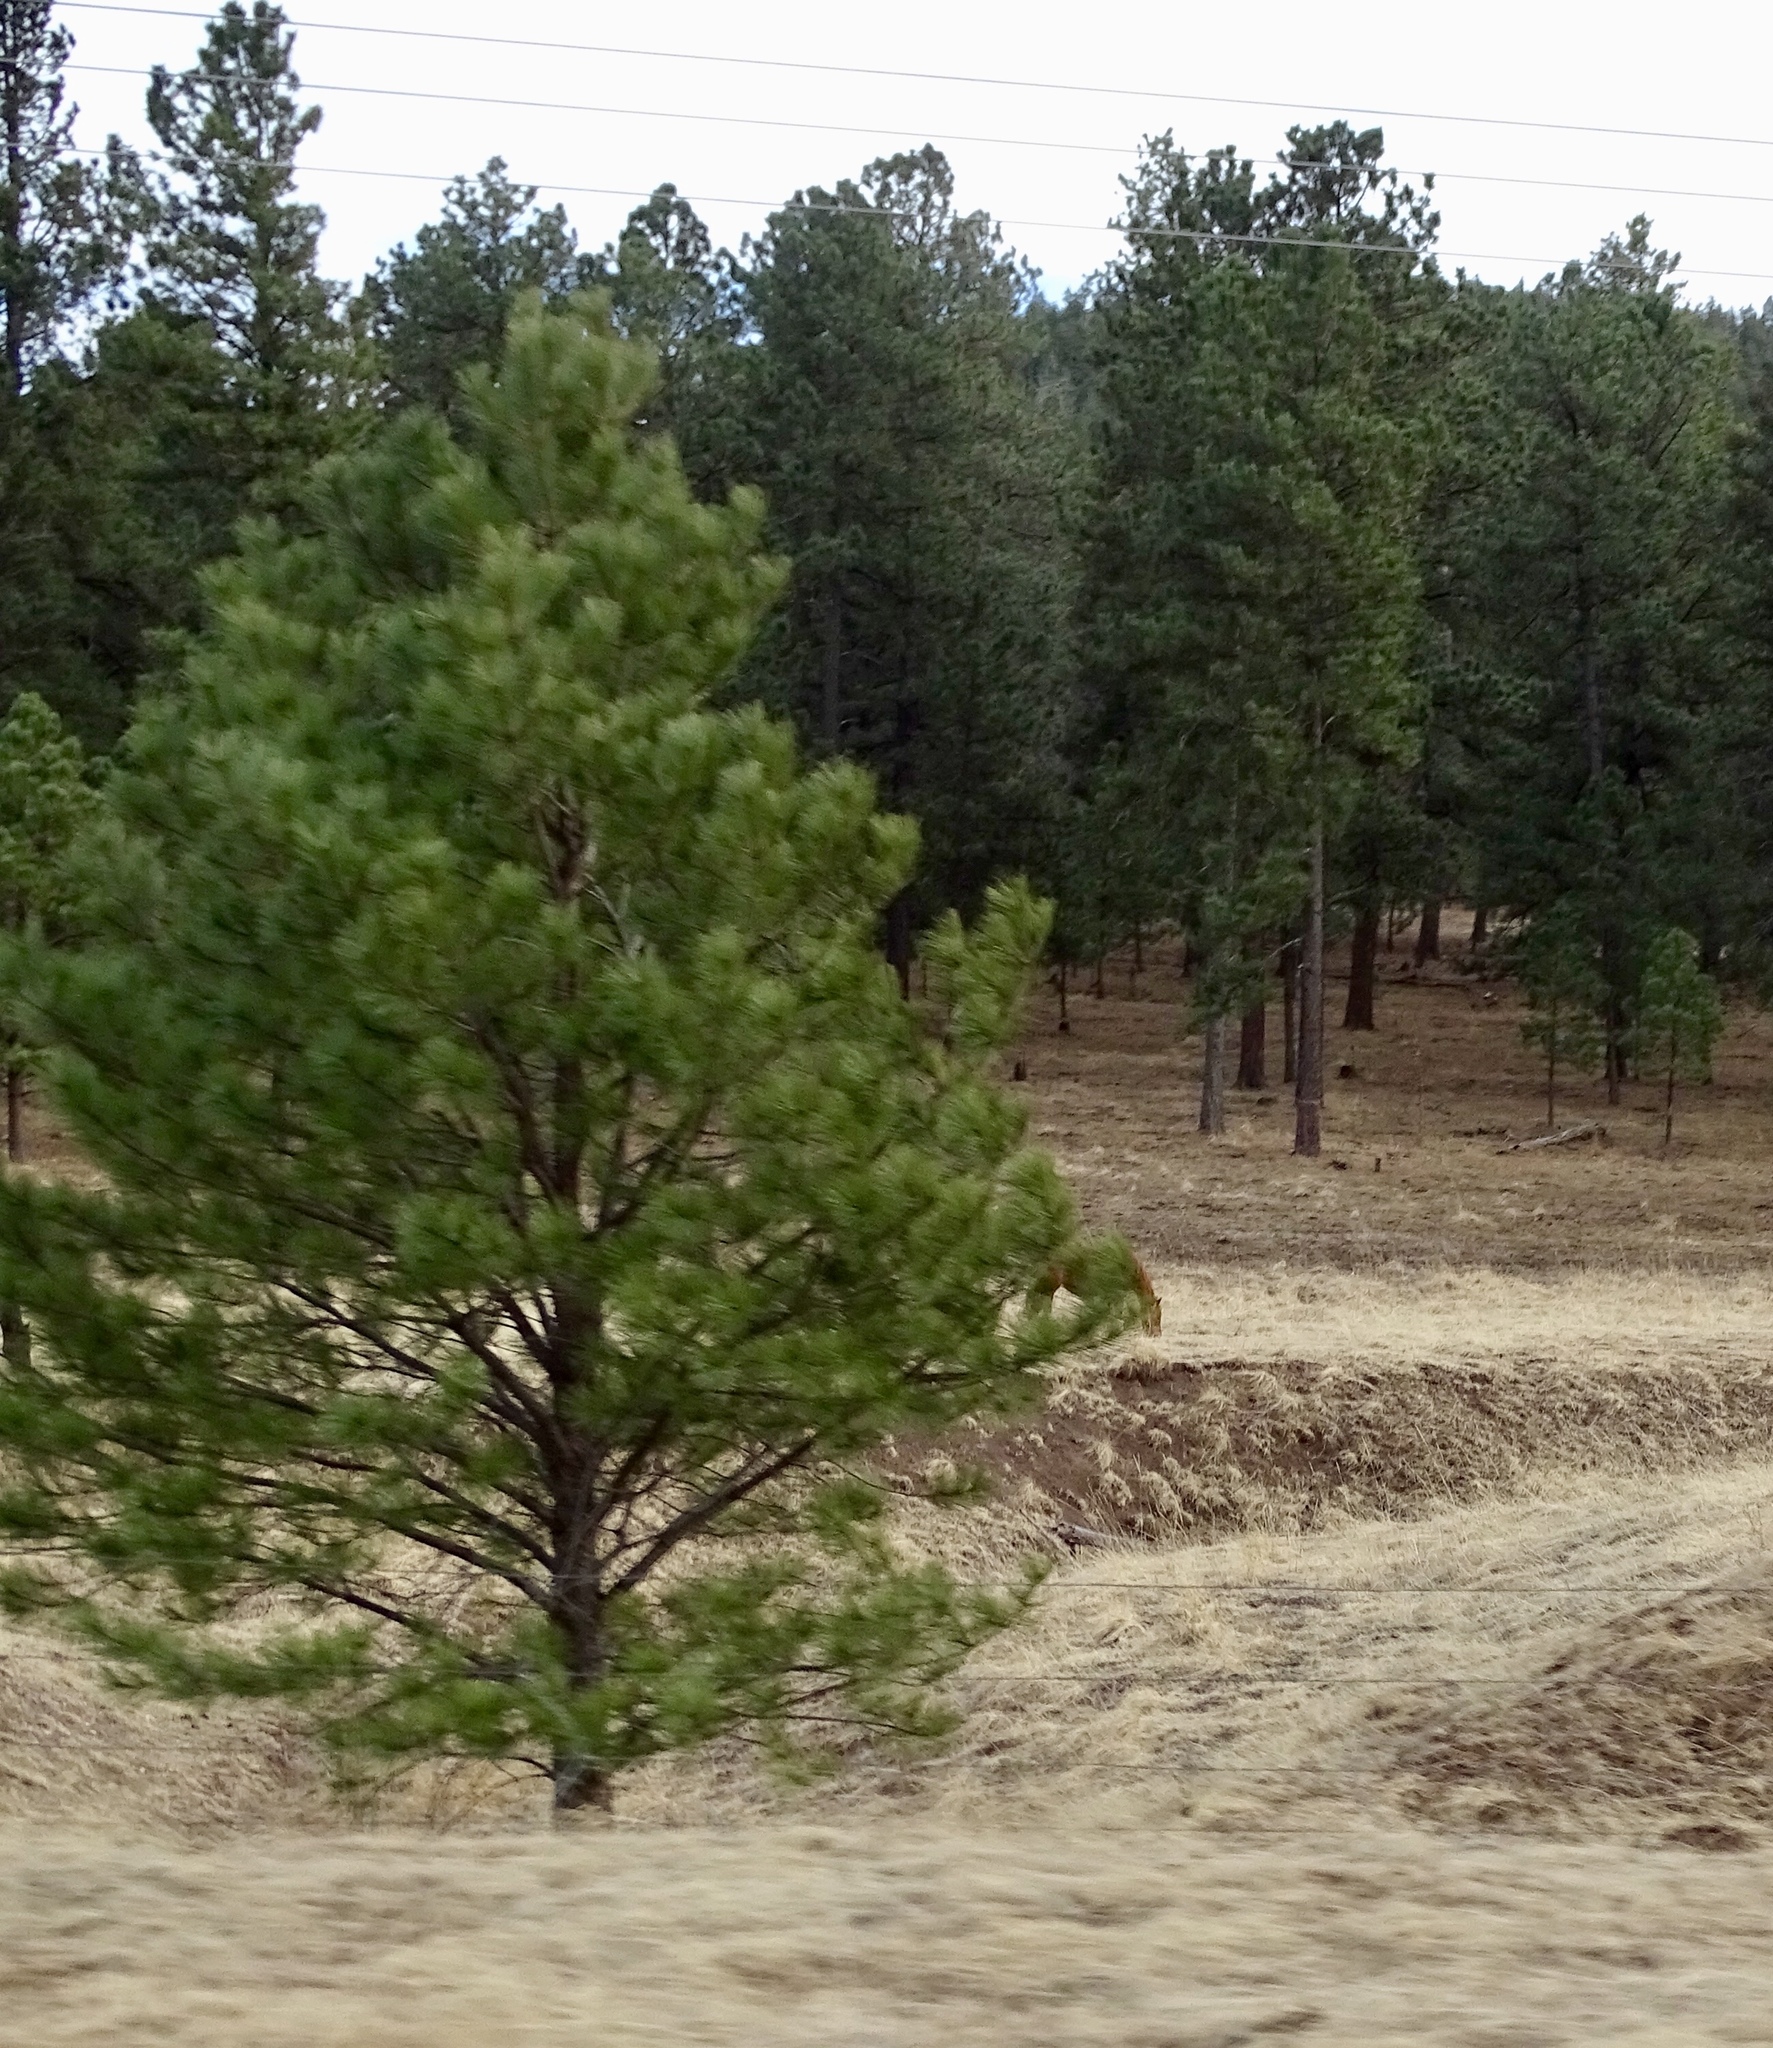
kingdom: Plantae
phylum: Tracheophyta
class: Pinopsida
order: Pinales
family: Pinaceae
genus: Pinus
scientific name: Pinus ponderosa
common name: Western yellow-pine
